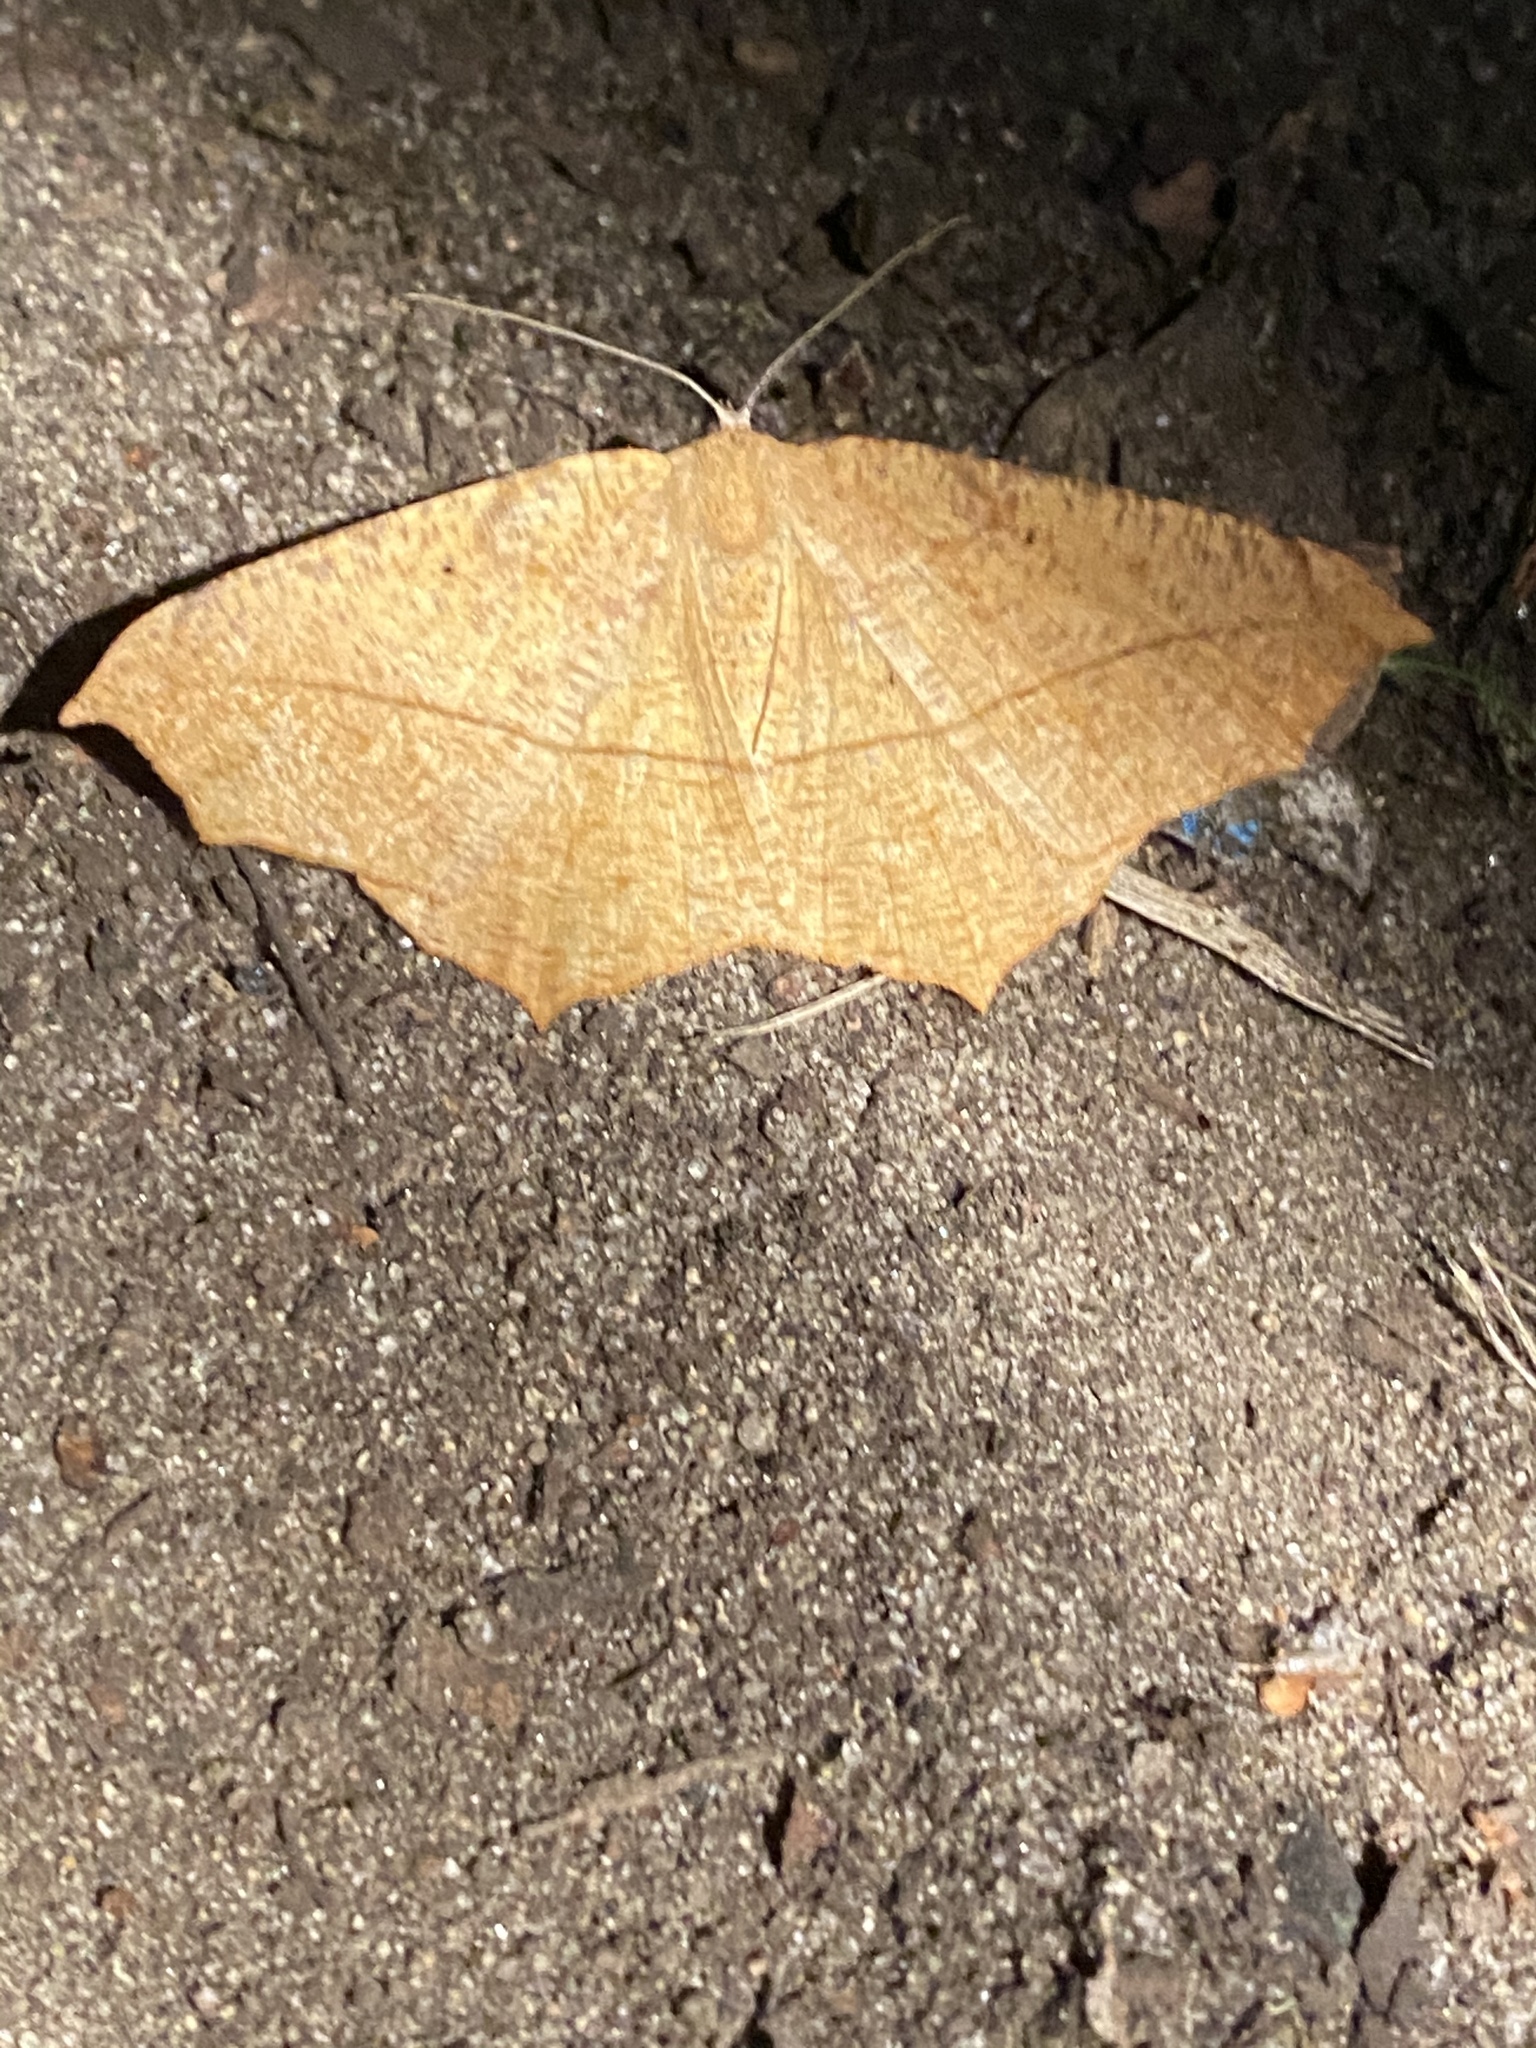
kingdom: Animalia
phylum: Arthropoda
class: Insecta
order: Lepidoptera
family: Geometridae
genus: Prochoerodes
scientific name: Prochoerodes lineola
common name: Large maple spanworm
